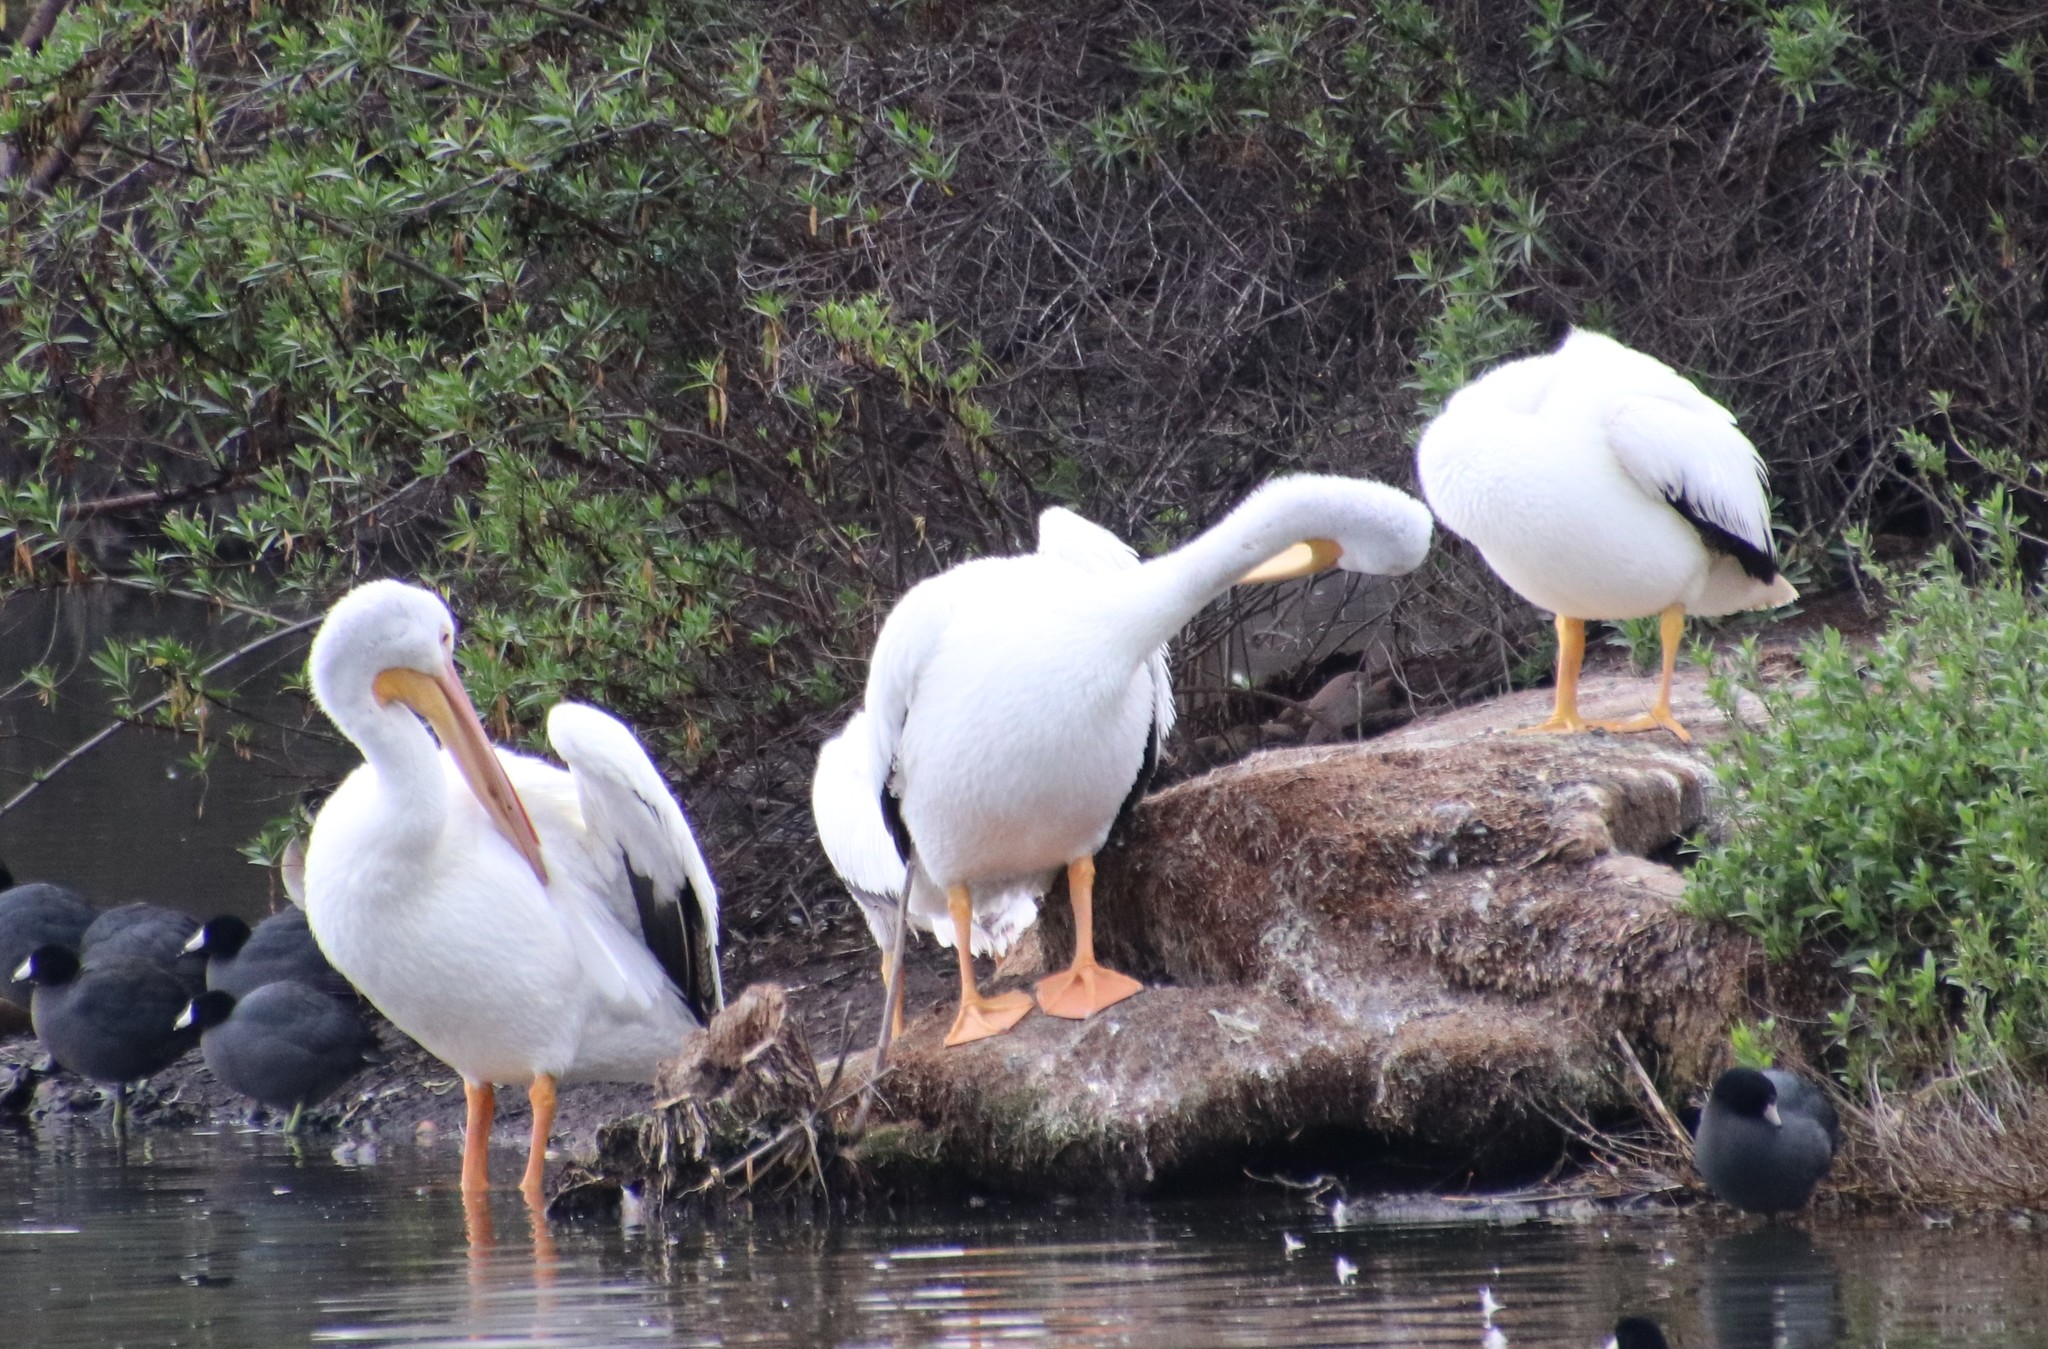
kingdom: Animalia
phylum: Chordata
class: Aves
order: Pelecaniformes
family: Pelecanidae
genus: Pelecanus
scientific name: Pelecanus erythrorhynchos
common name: American white pelican
